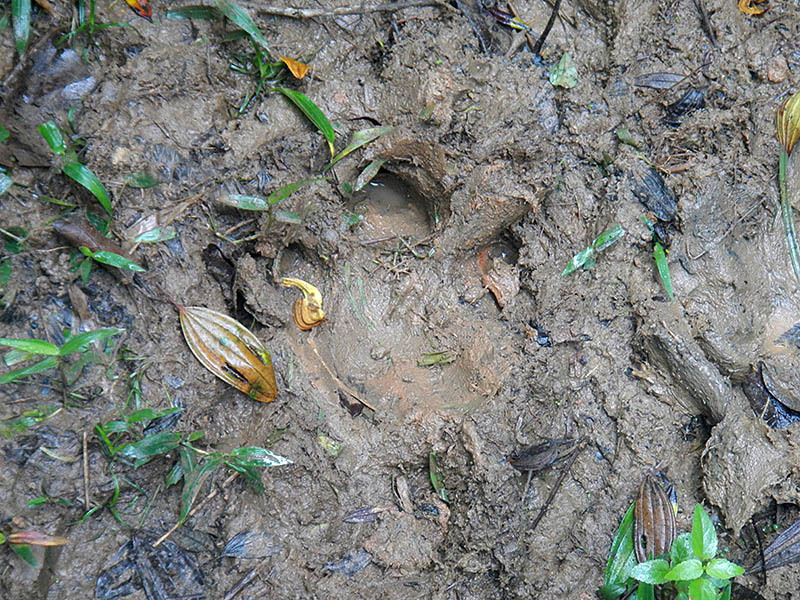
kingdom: Animalia
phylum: Chordata
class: Mammalia
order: Perissodactyla
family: Tapiridae
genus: Tapirus
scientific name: Tapirus terrestris
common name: Brazilian tapir
